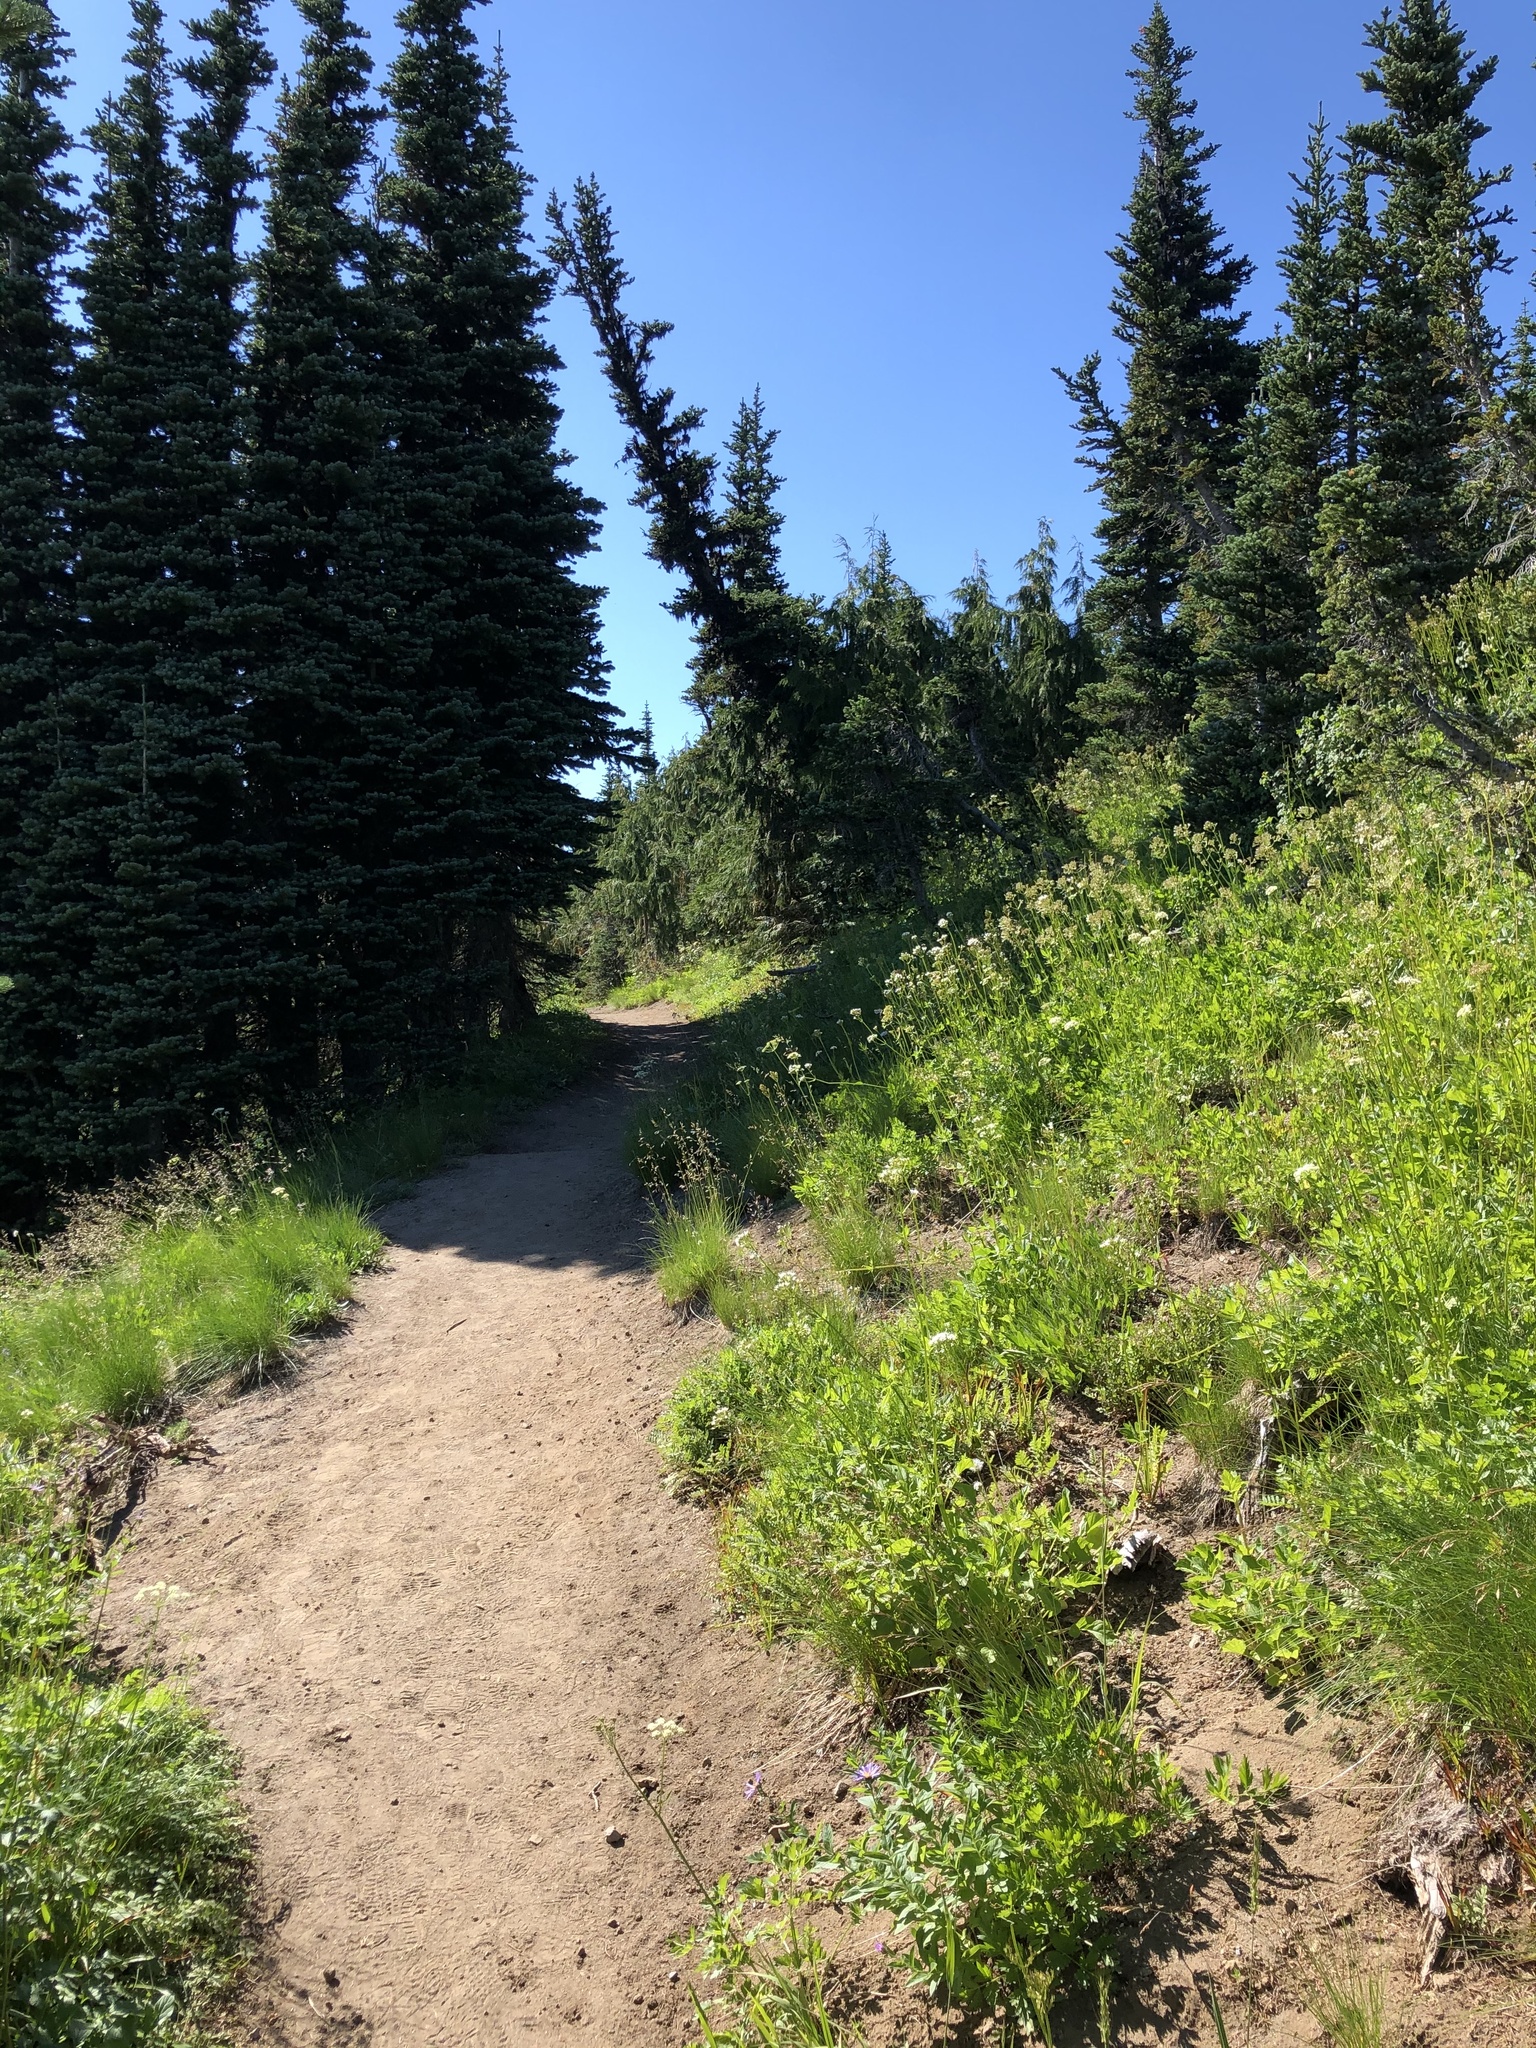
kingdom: Plantae
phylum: Tracheophyta
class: Pinopsida
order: Pinales
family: Cupressaceae
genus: Xanthocyparis
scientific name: Xanthocyparis nootkatensis
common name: Nootka cypress
